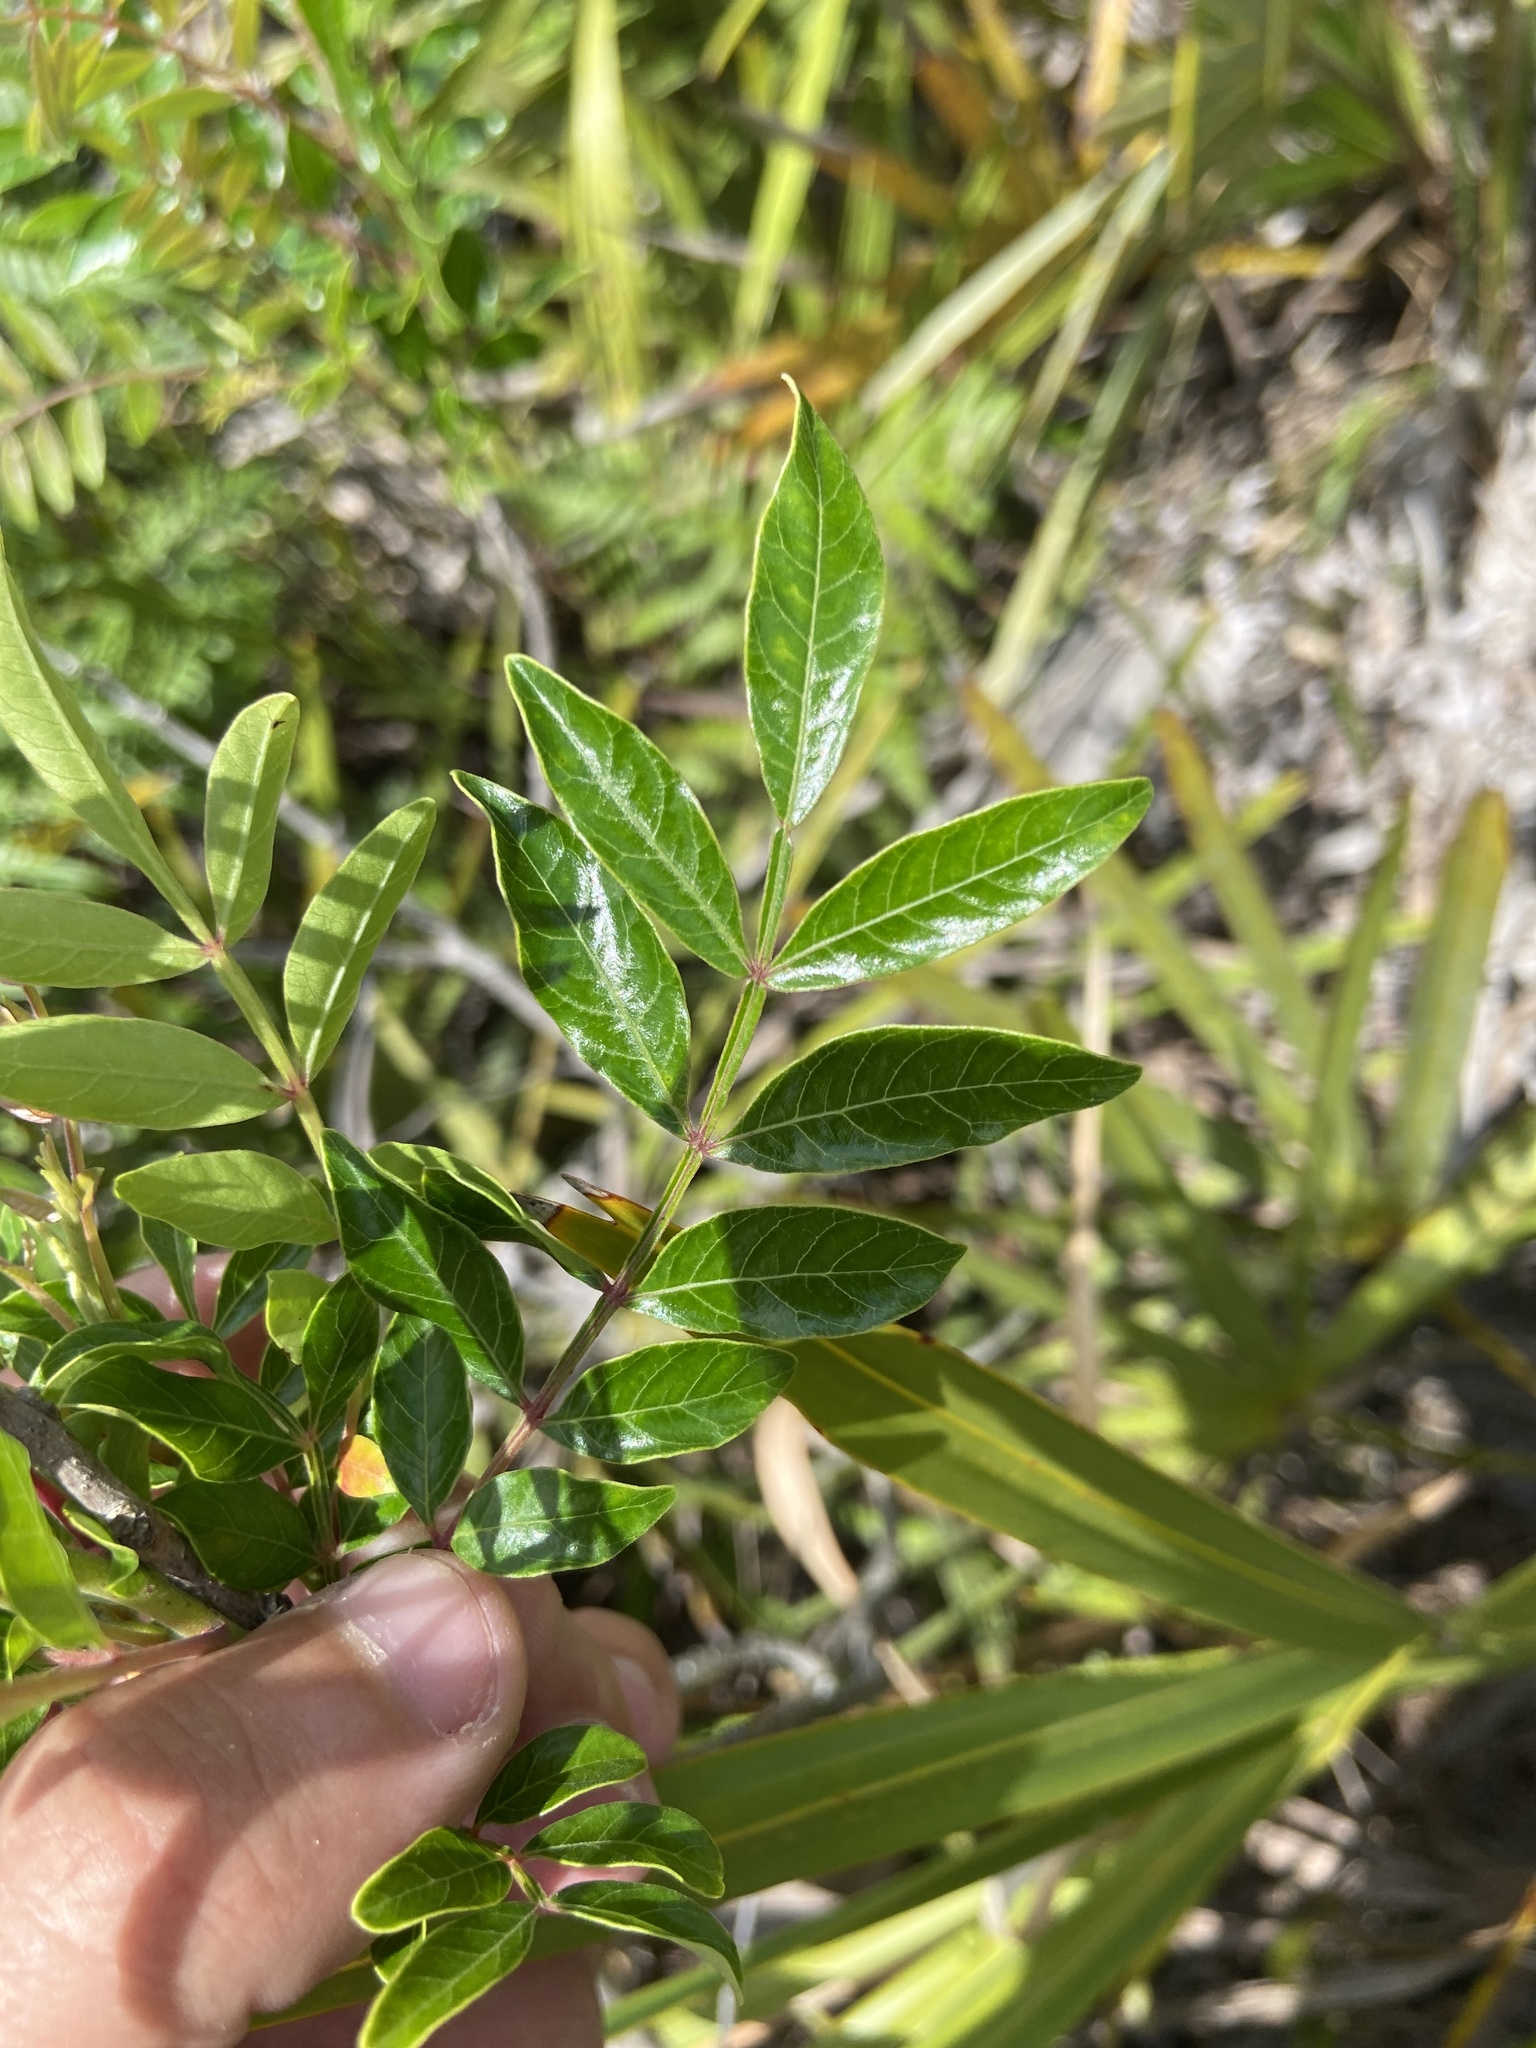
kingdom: Plantae
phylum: Tracheophyta
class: Magnoliopsida
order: Sapindales
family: Anacardiaceae
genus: Rhus
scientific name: Rhus copallina
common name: Shining sumac
